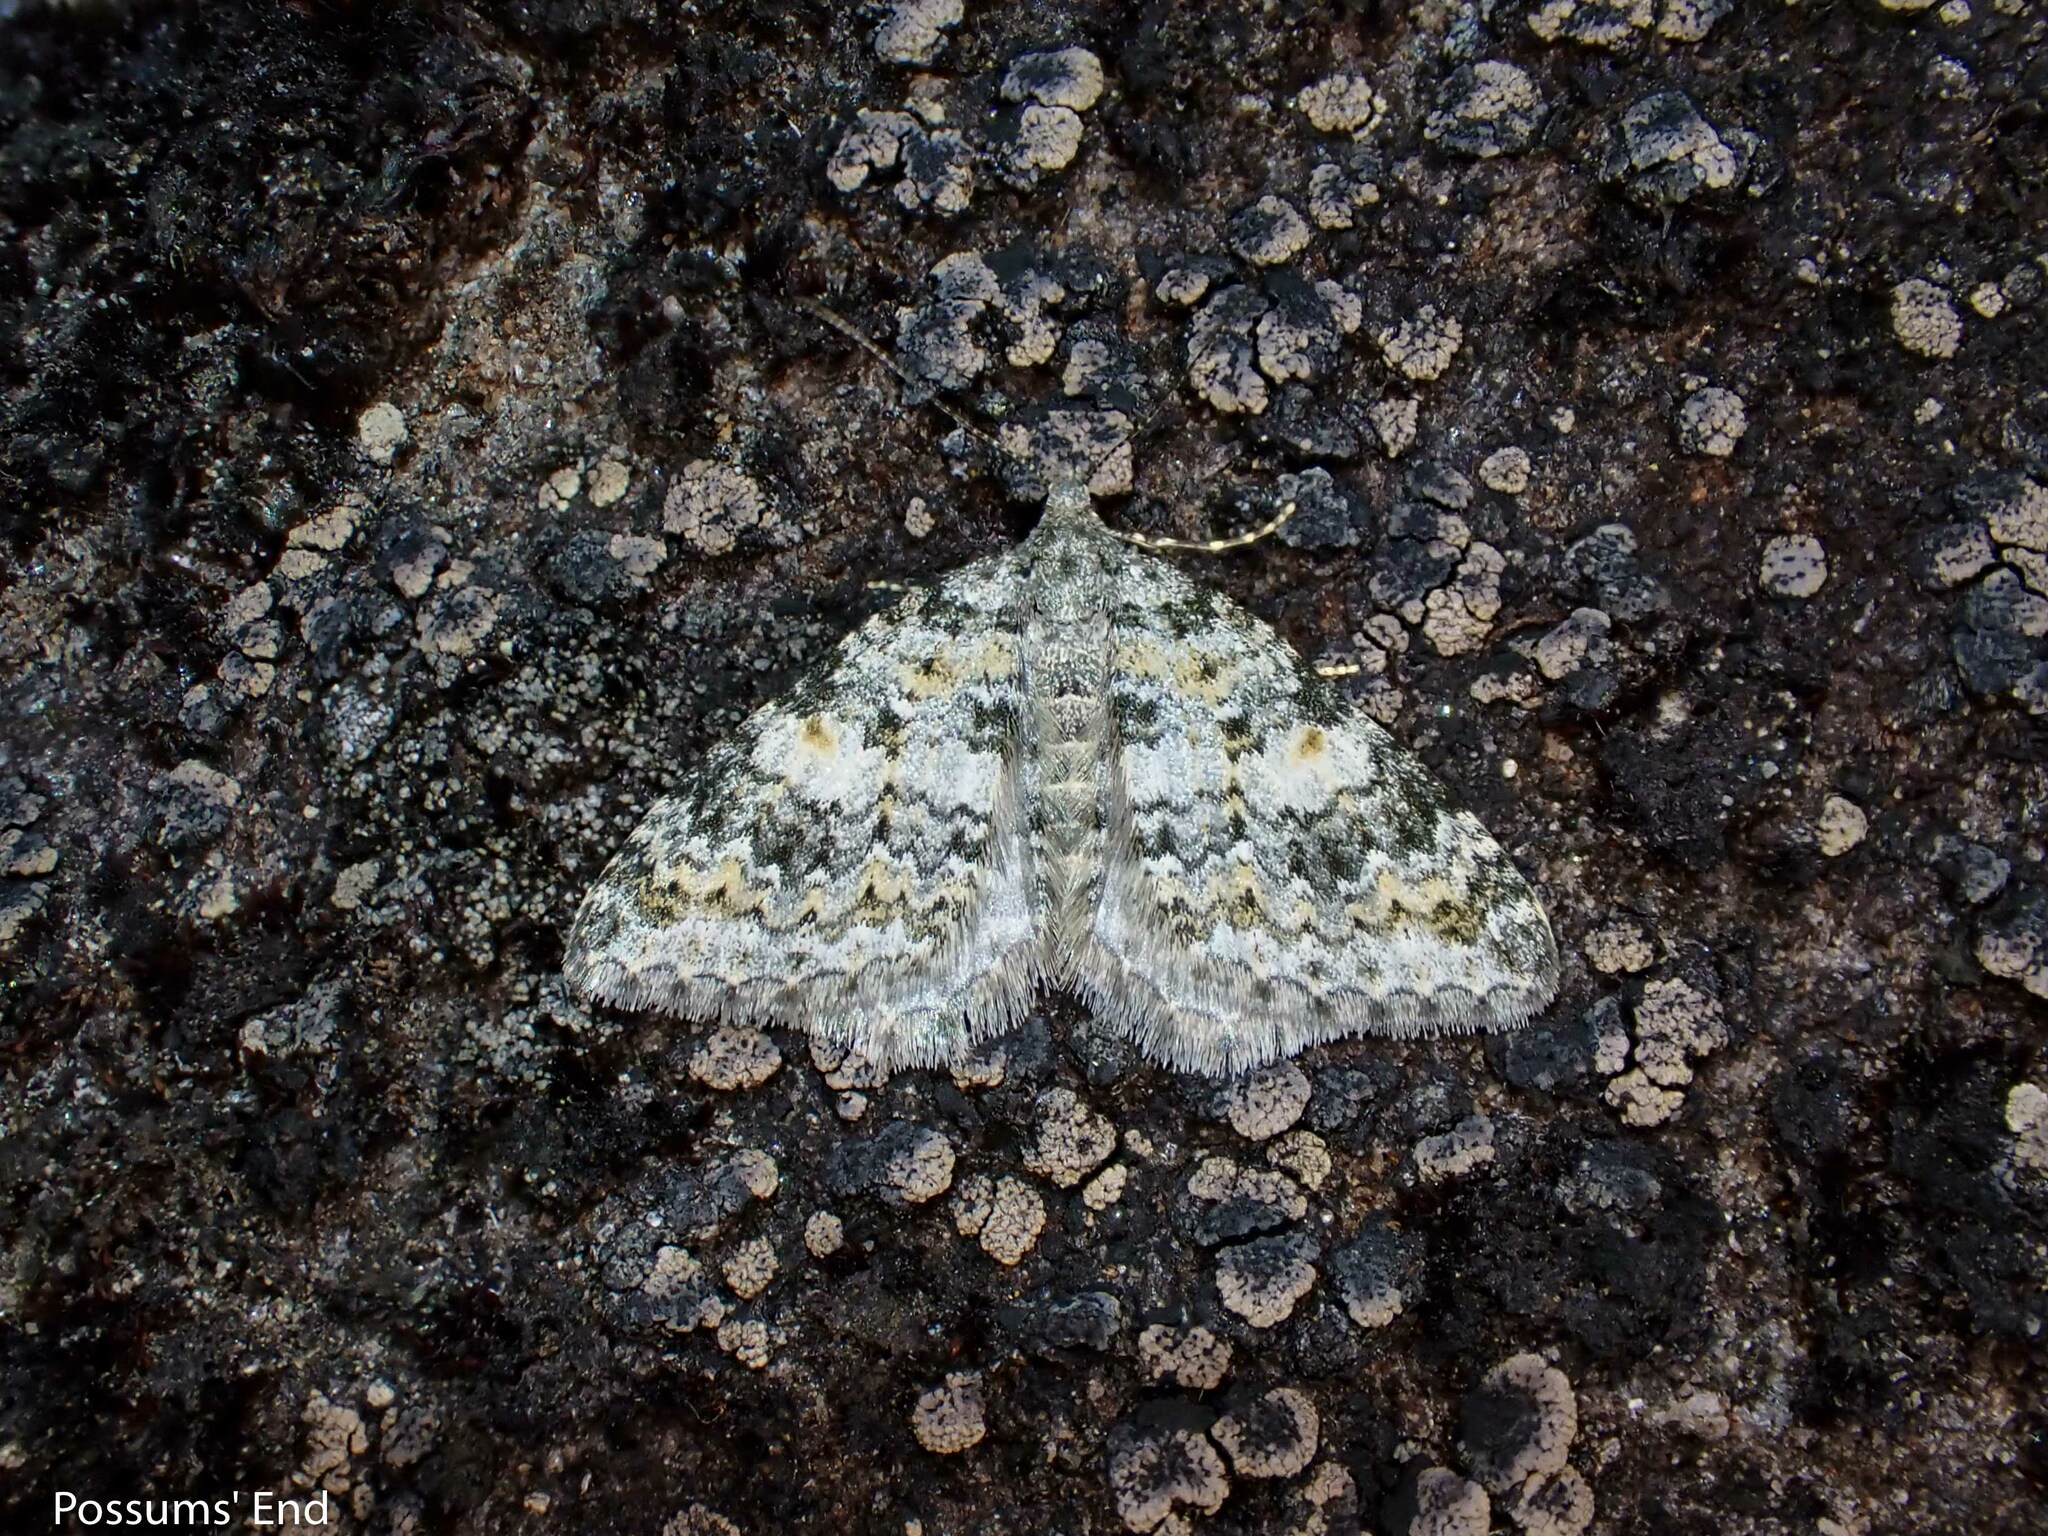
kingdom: Animalia
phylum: Arthropoda
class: Insecta
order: Lepidoptera
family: Geometridae
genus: Helastia
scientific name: Helastia plumbea
